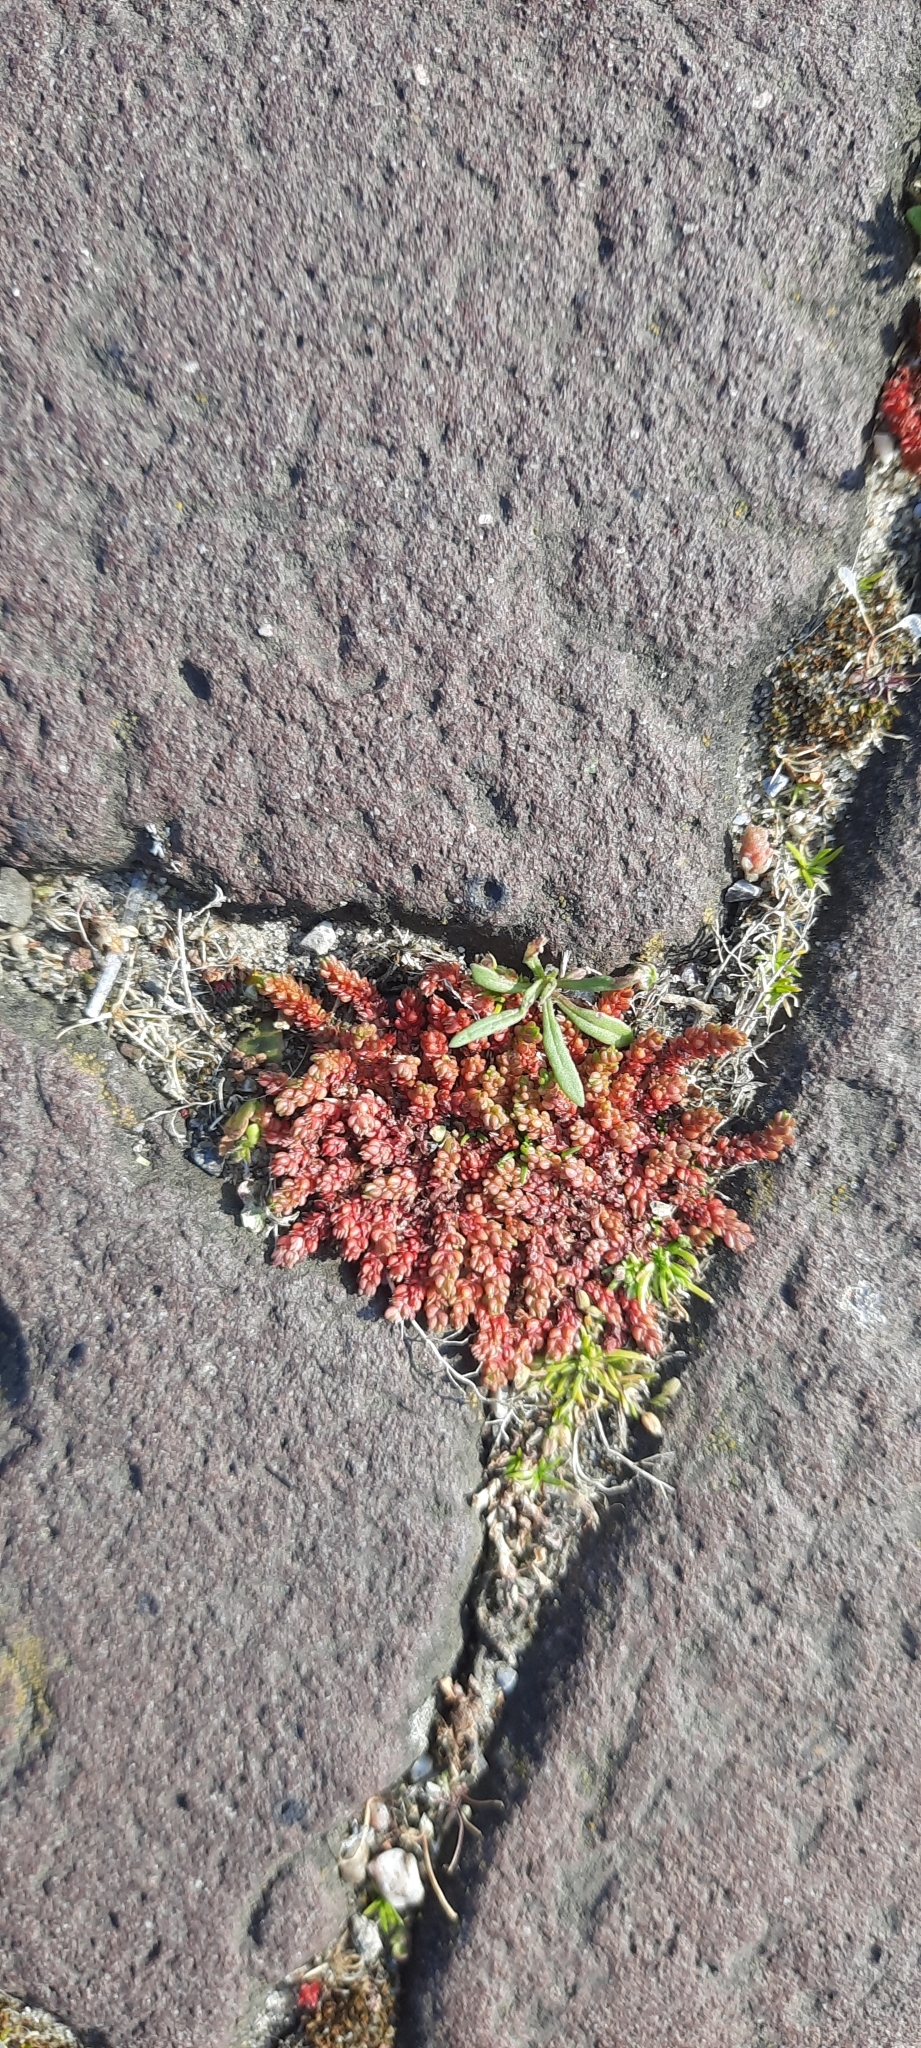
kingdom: Plantae
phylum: Tracheophyta
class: Magnoliopsida
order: Saxifragales
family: Crassulaceae
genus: Crassula
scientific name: Crassula tillaea
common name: Mossy stonecrop
